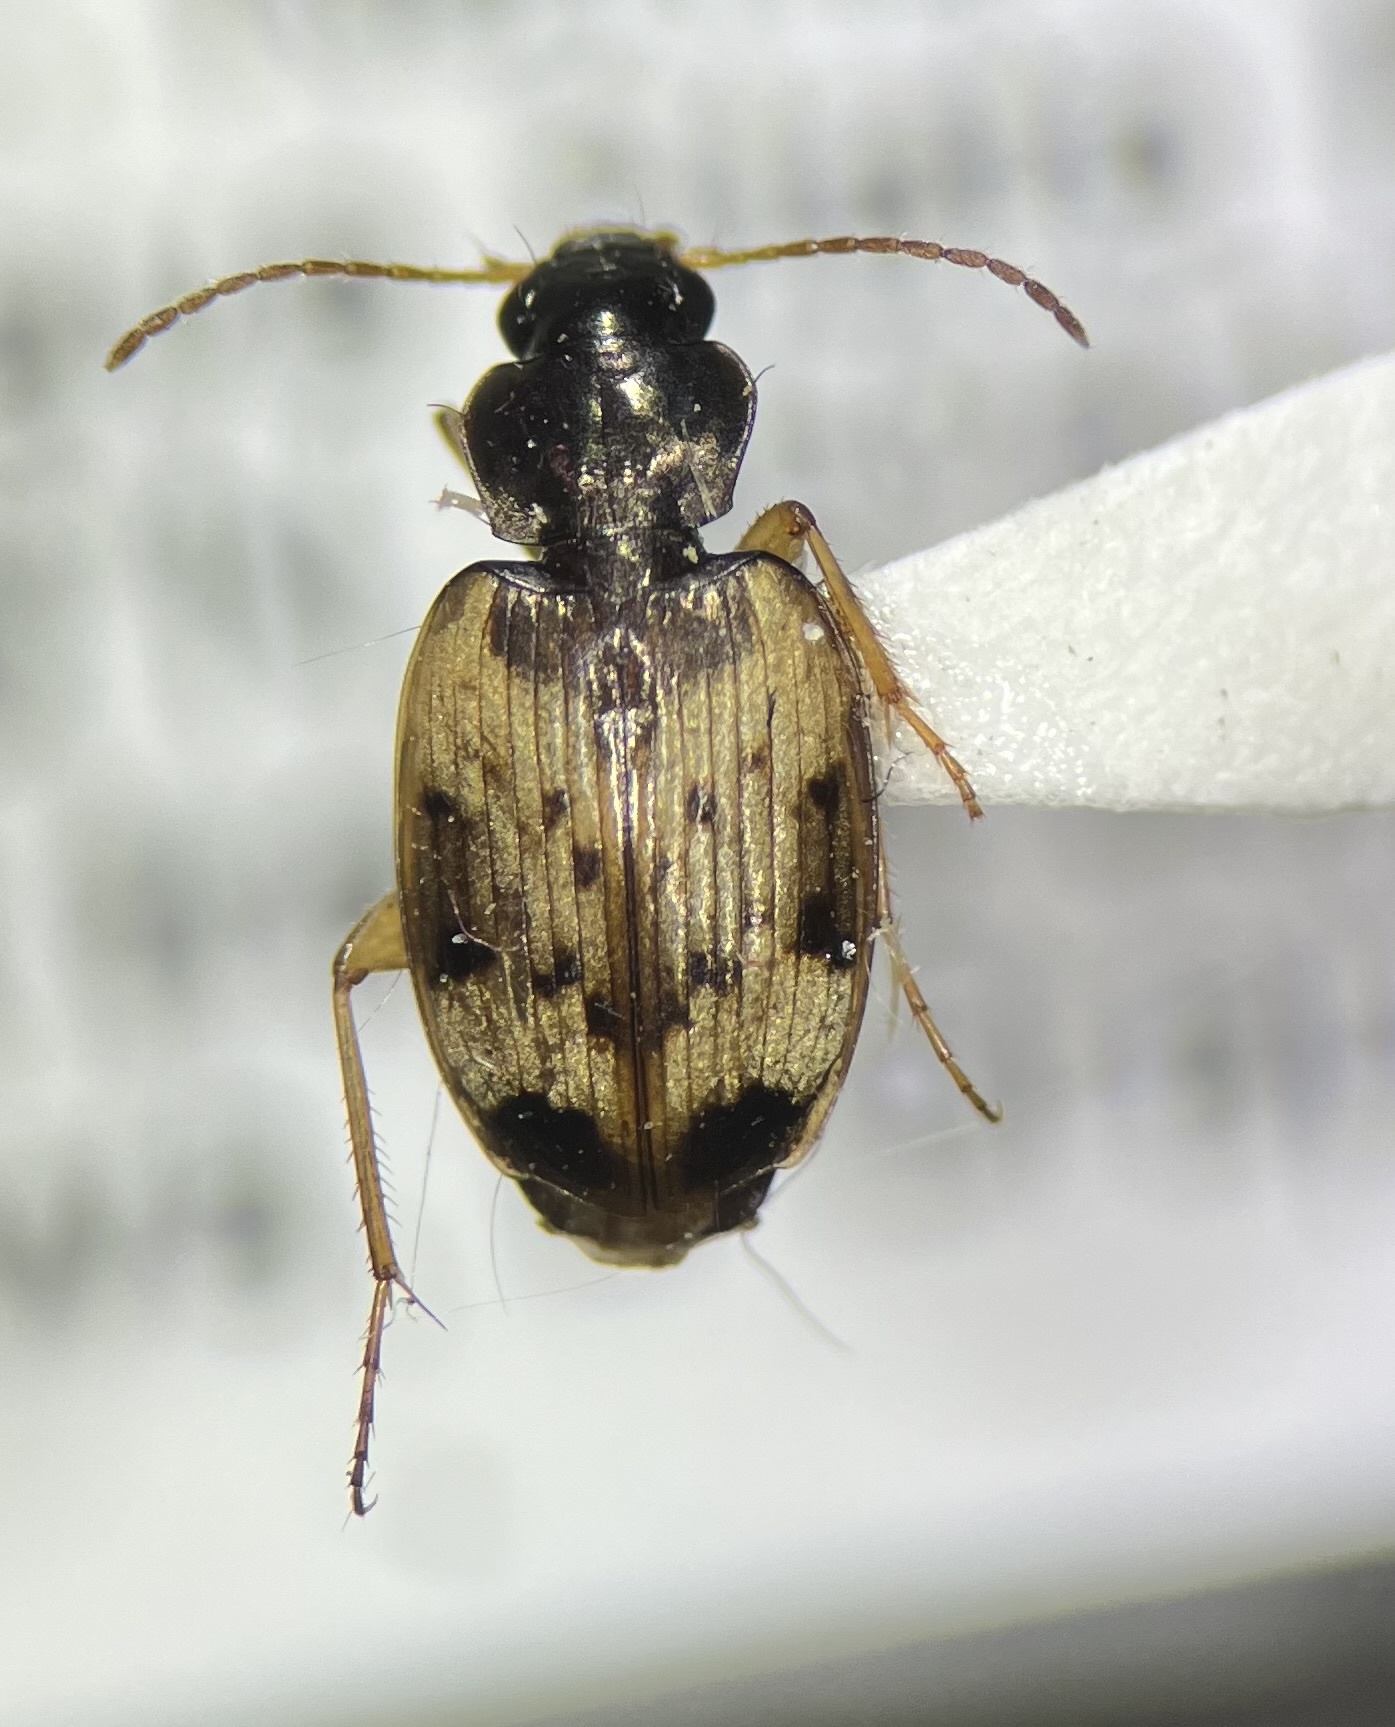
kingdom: Animalia
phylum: Arthropoda
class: Insecta
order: Coleoptera
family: Carabidae
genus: Tetragonoderus
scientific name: Tetragonoderus fasciatus
